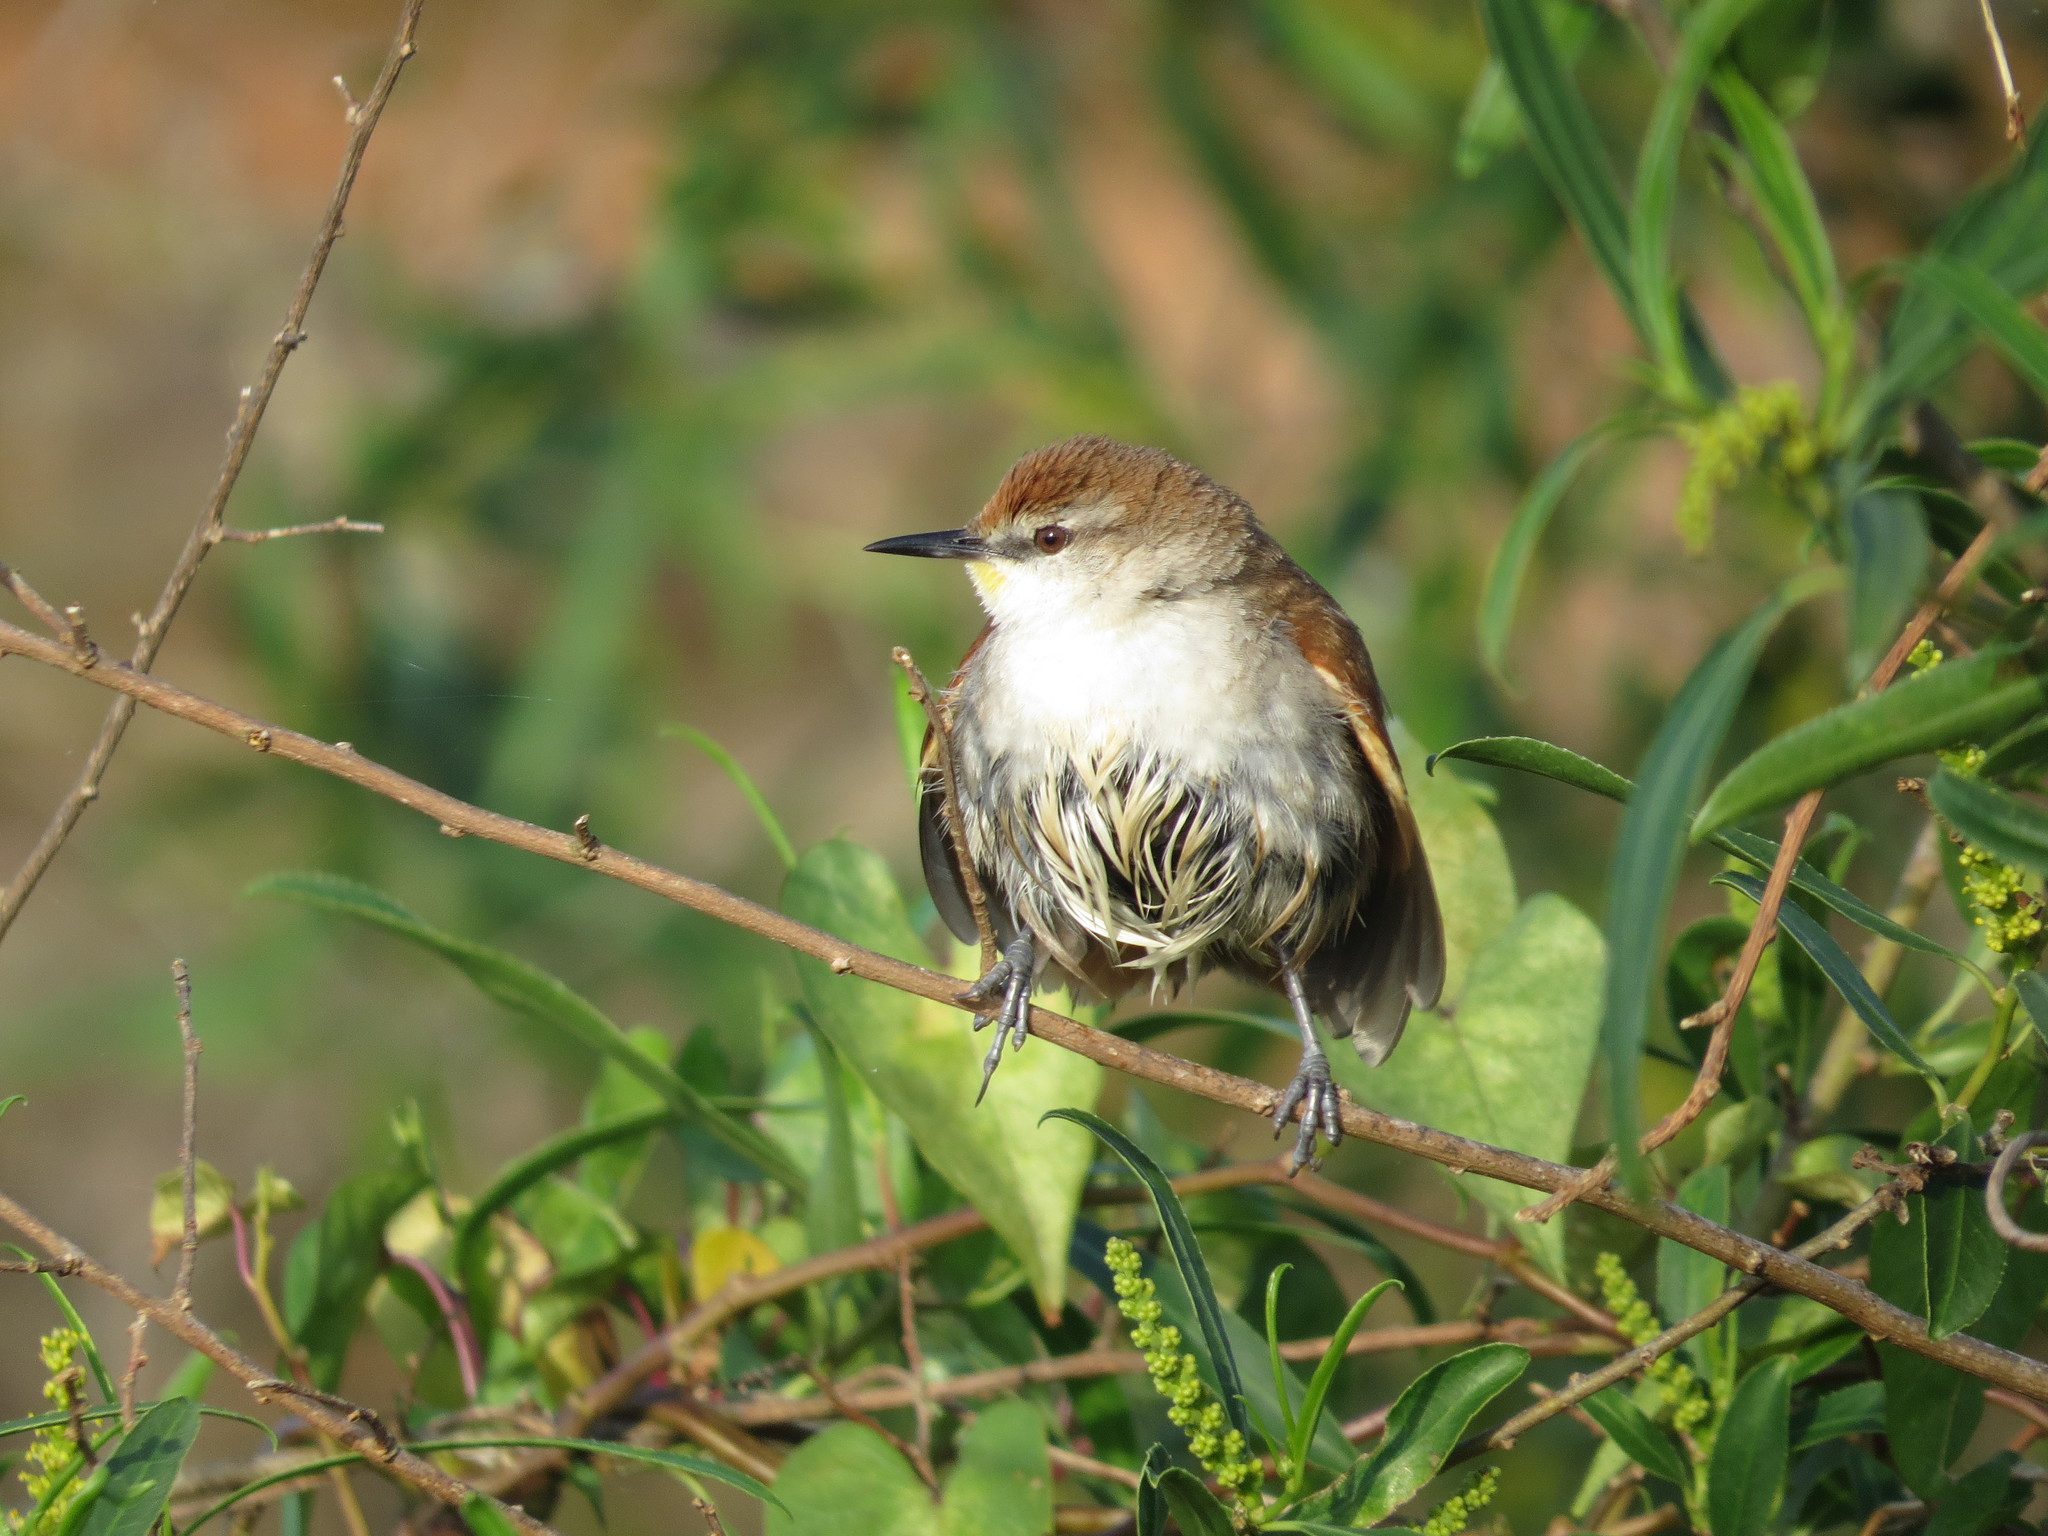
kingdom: Animalia
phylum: Chordata
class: Aves
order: Passeriformes
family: Furnariidae
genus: Certhiaxis
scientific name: Certhiaxis cinnamomeus
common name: Yellow-chinned spinetail
